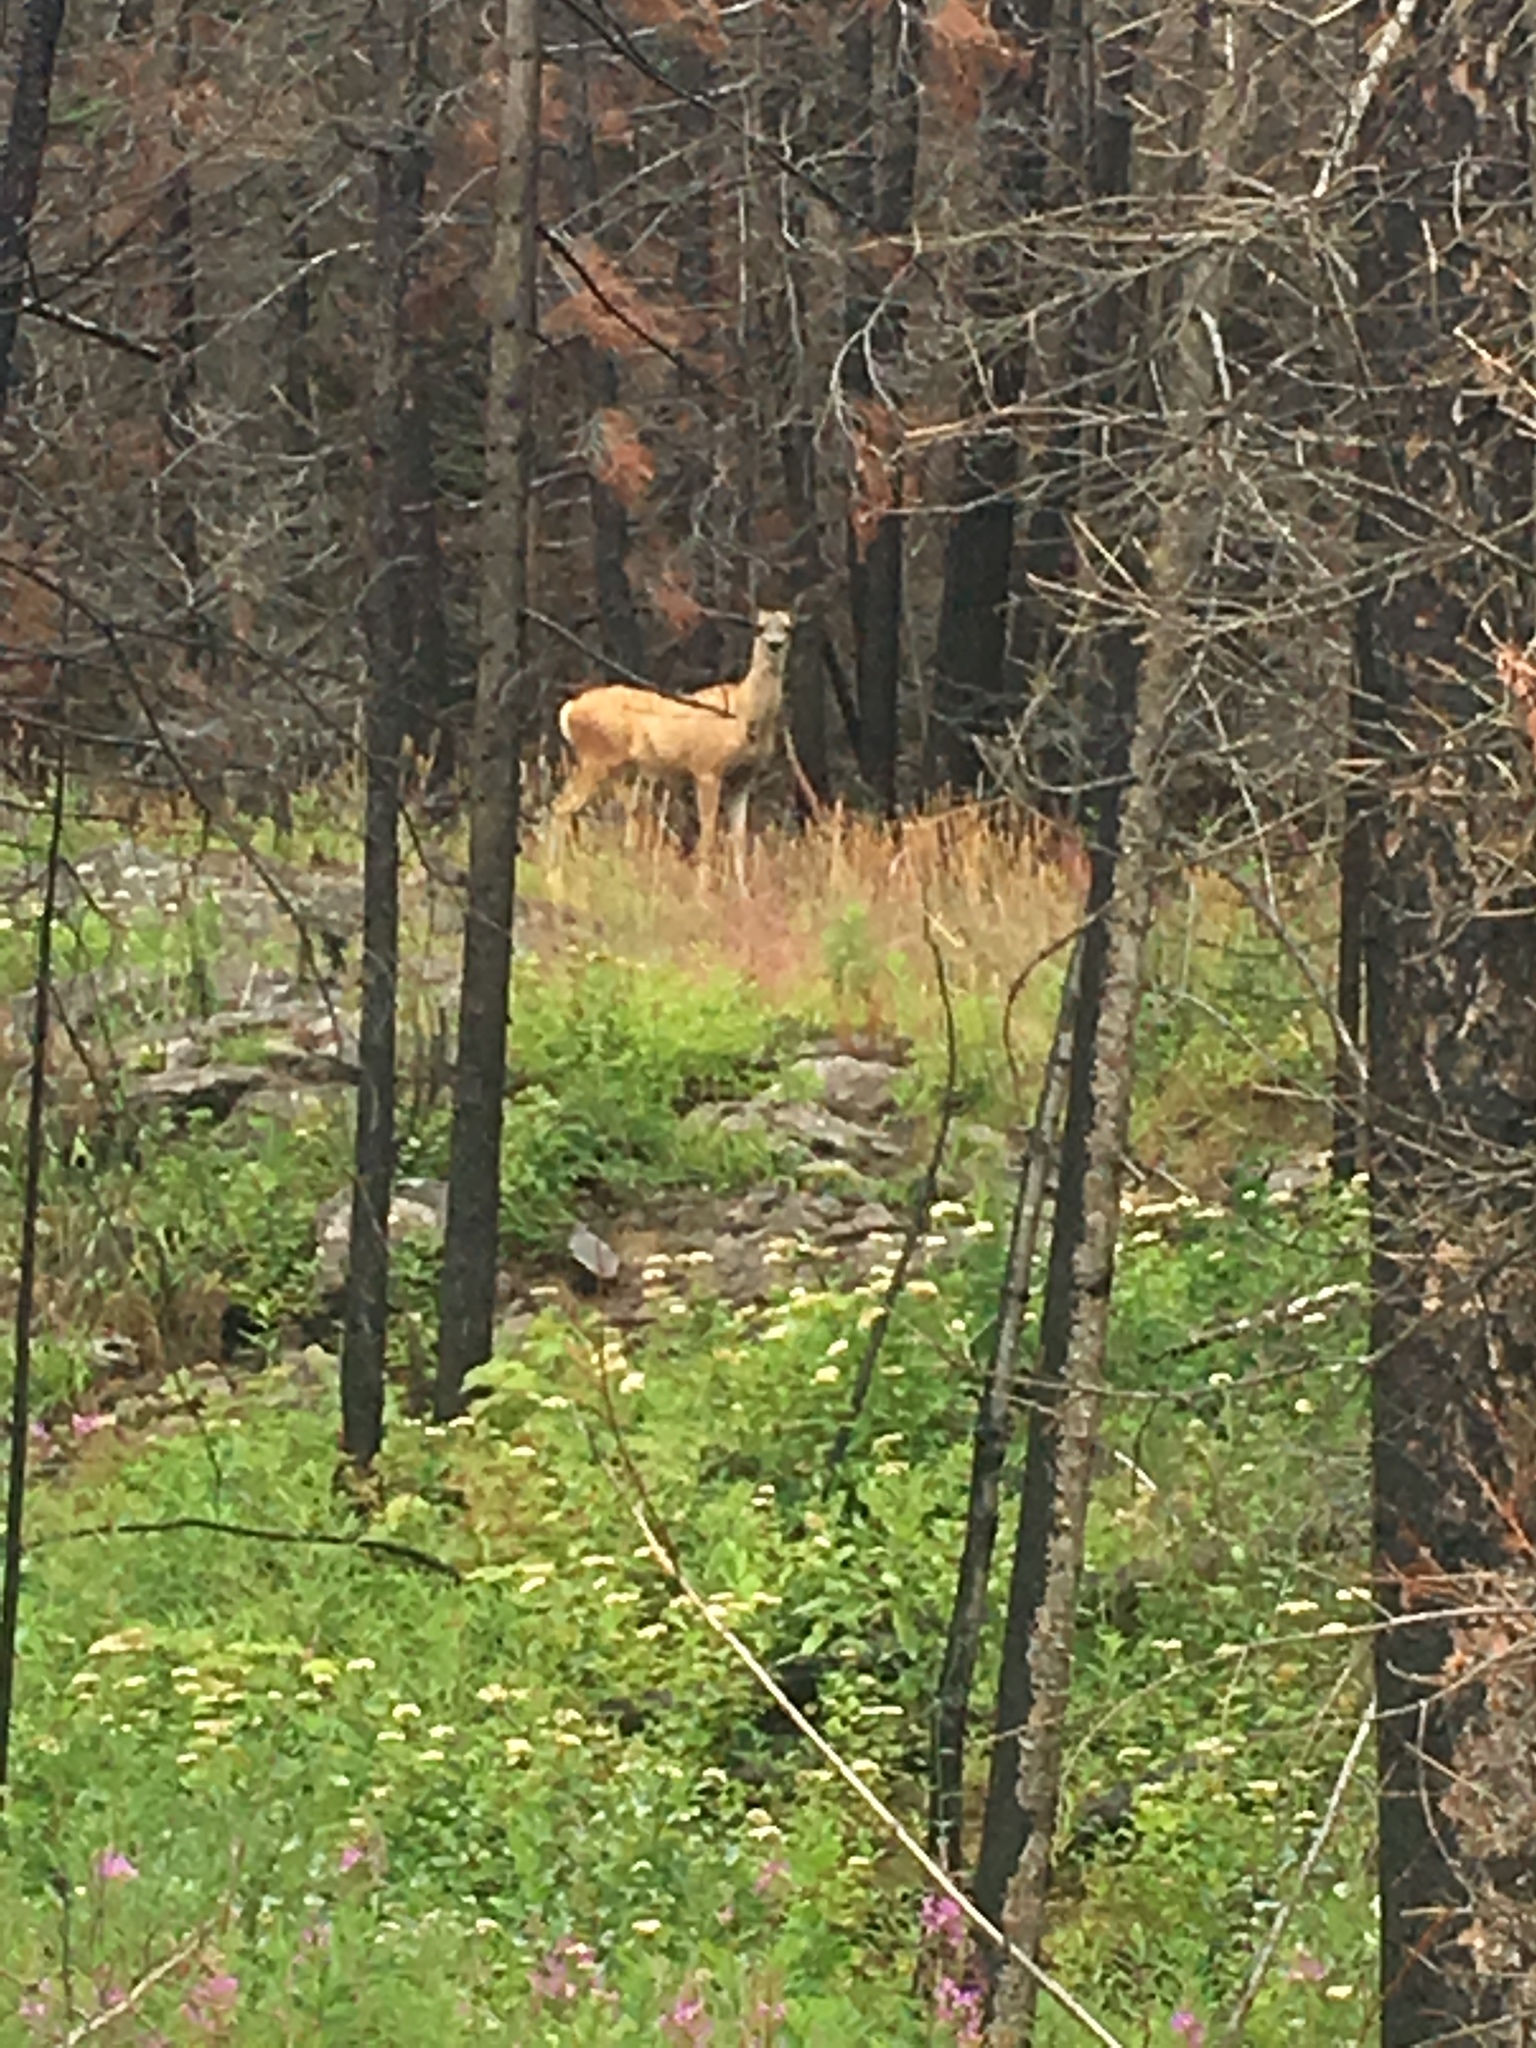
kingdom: Animalia
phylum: Chordata
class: Mammalia
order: Artiodactyla
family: Cervidae
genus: Odocoileus
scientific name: Odocoileus hemionus
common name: Mule deer
